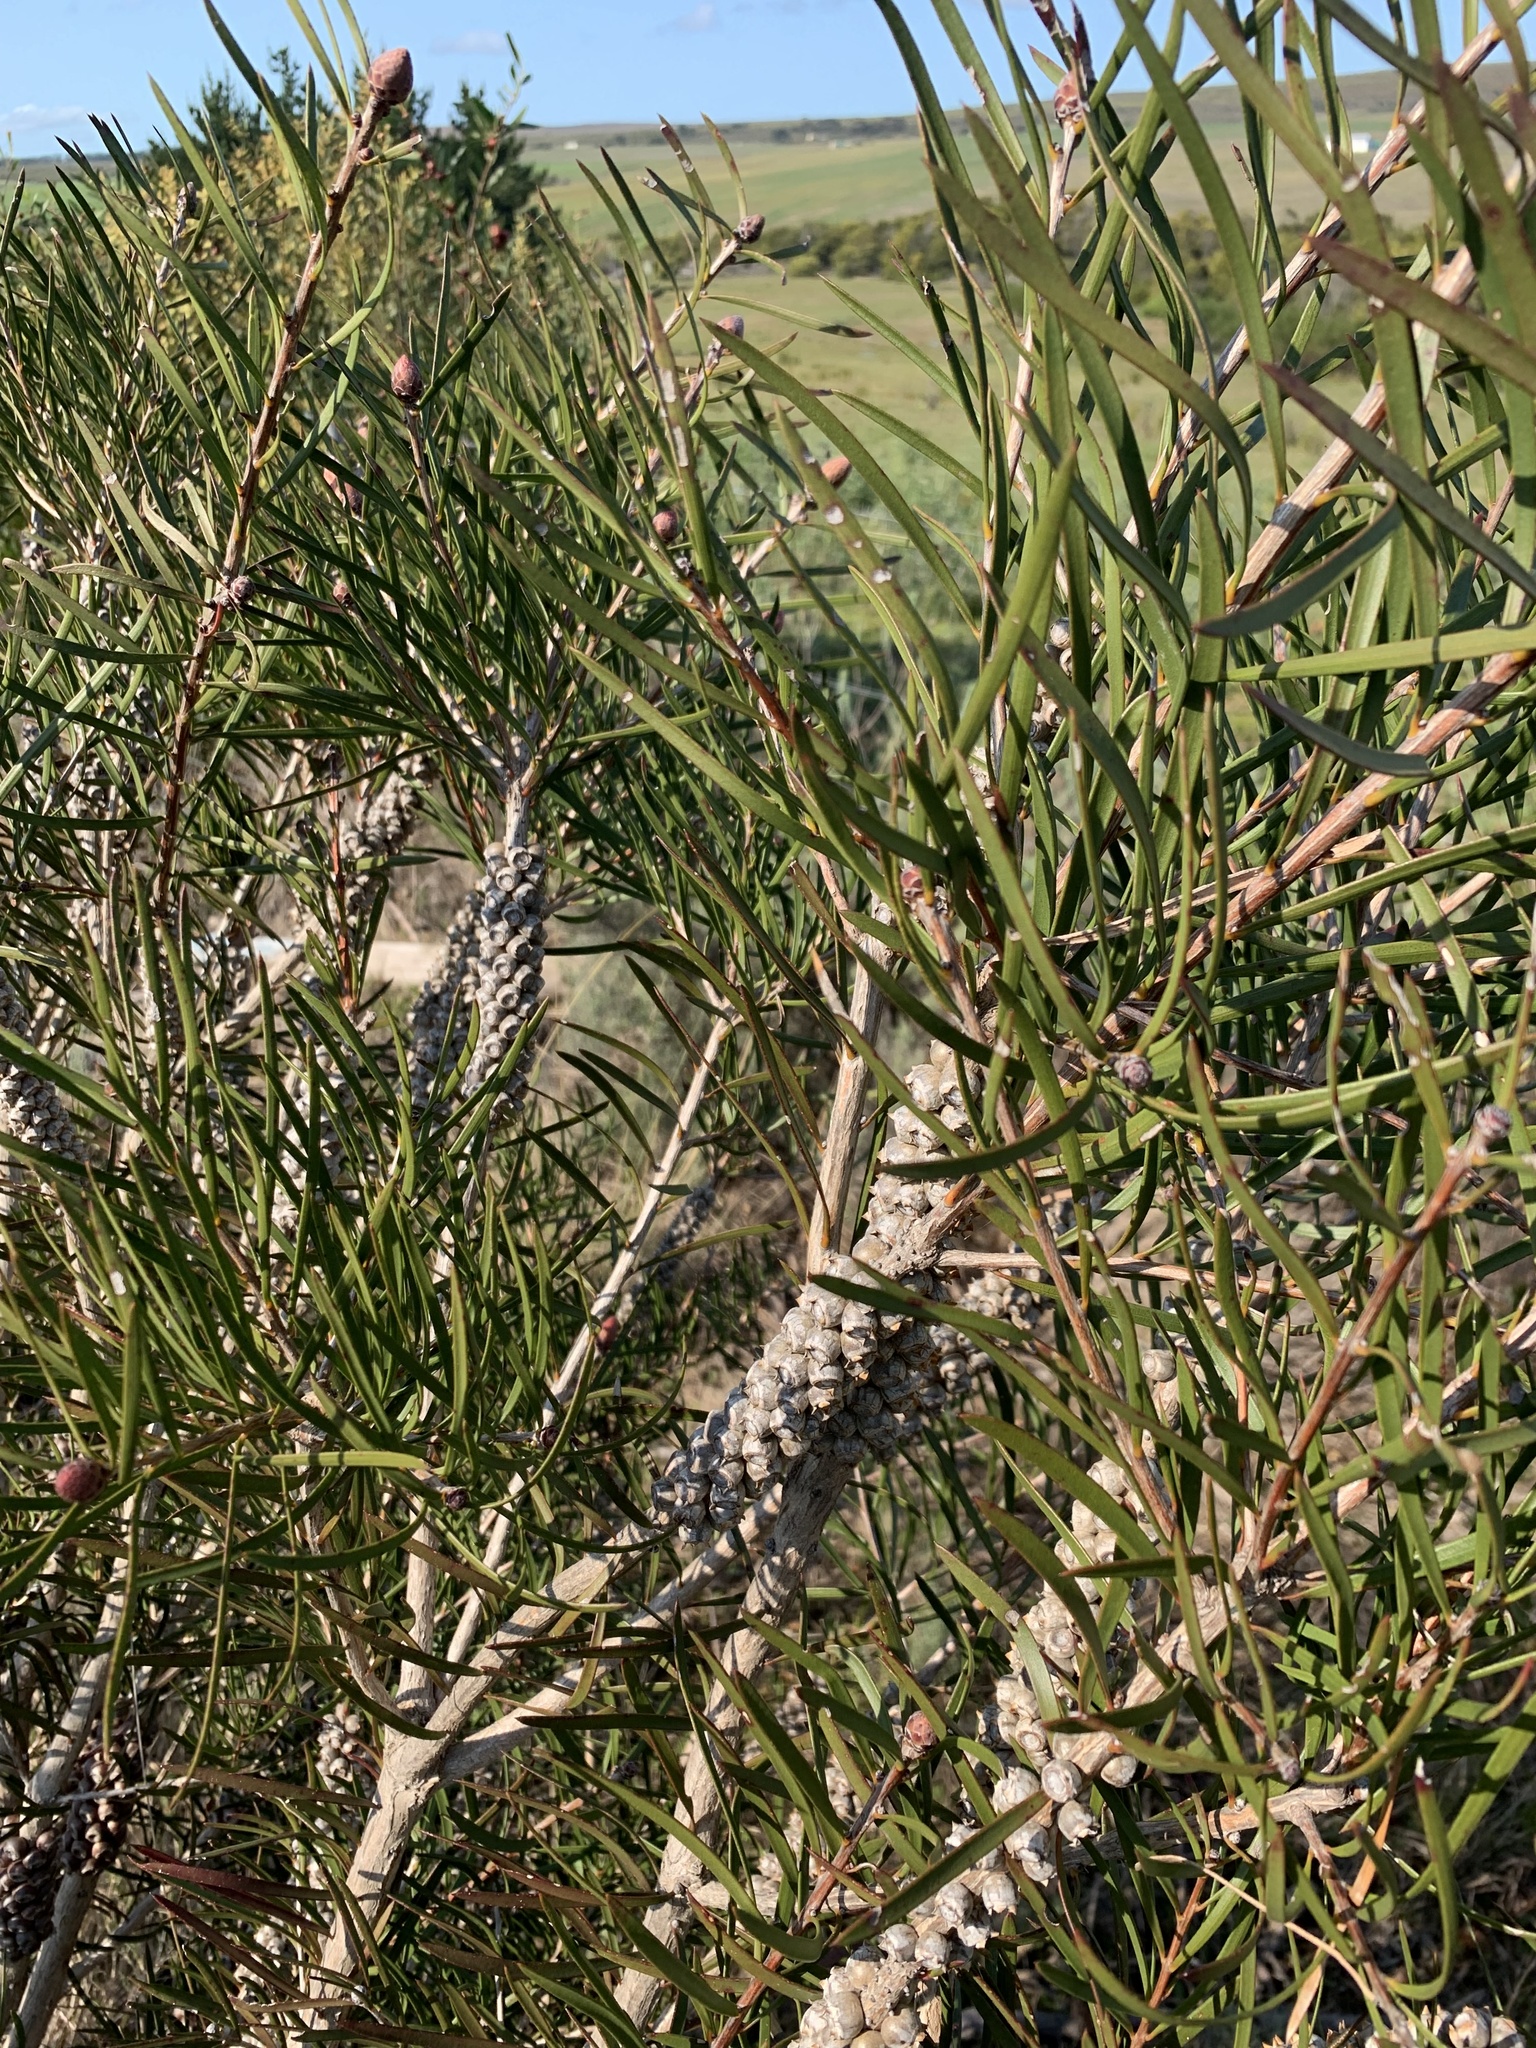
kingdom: Plantae
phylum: Tracheophyta
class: Magnoliopsida
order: Myrtales
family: Myrtaceae
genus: Callistemon
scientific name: Callistemon linearis
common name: Narrow-leaf bottlebrush
